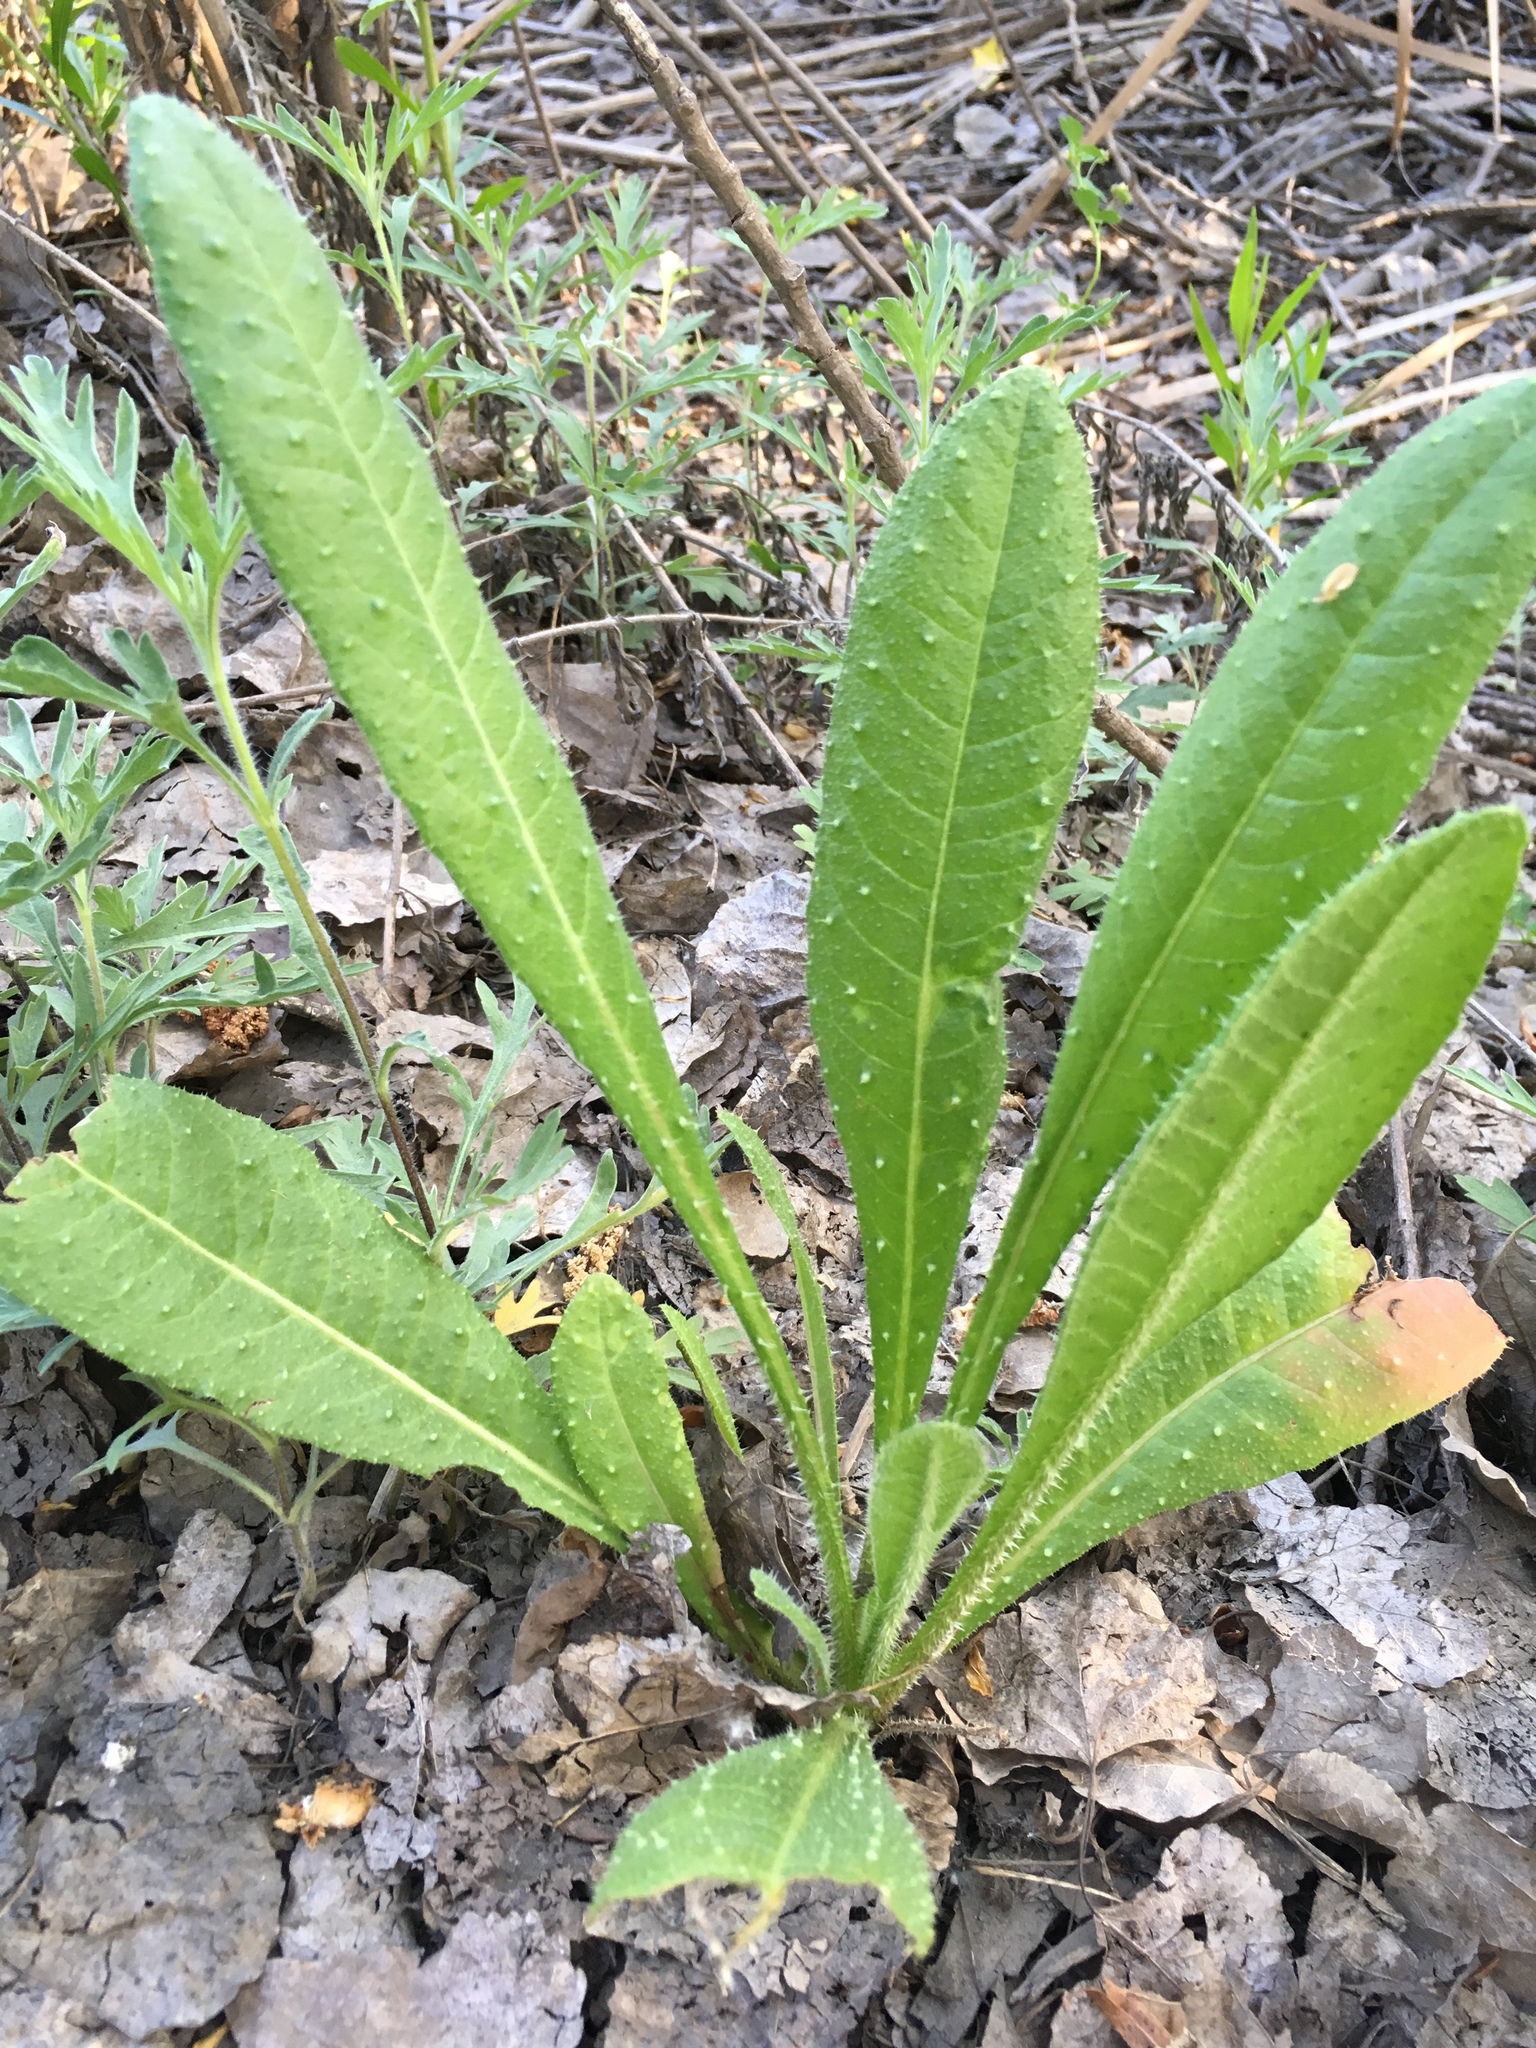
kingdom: Plantae
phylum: Tracheophyta
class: Magnoliopsida
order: Asterales
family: Asteraceae
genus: Helminthotheca
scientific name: Helminthotheca echioides
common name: Ox-tongue
